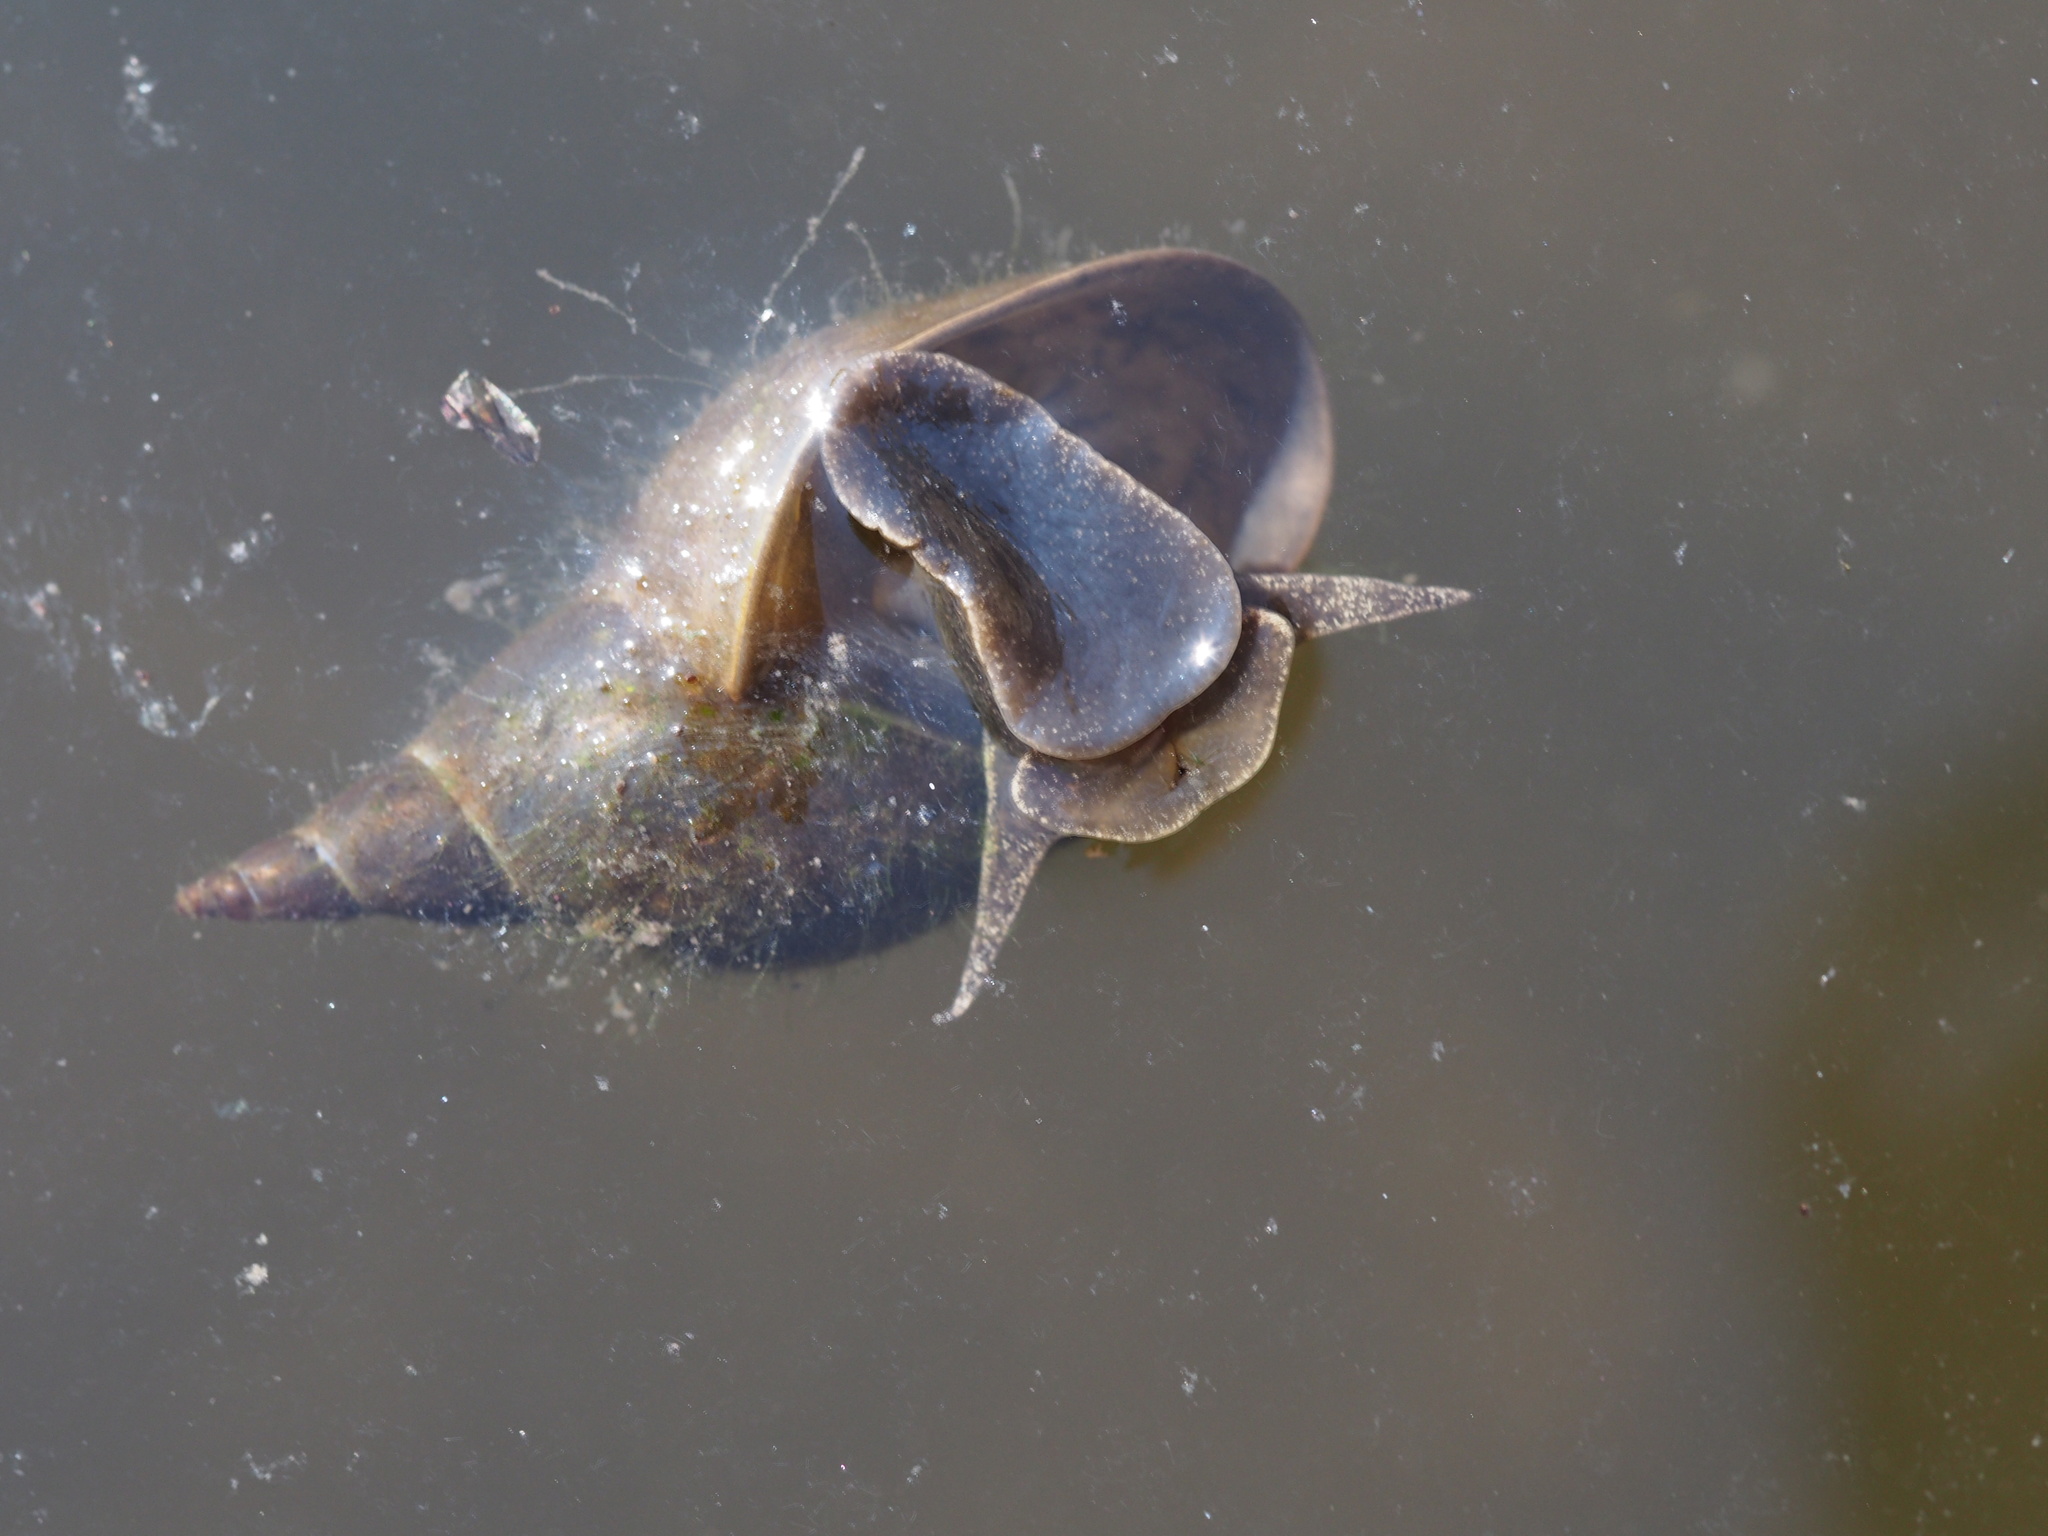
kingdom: Animalia
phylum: Mollusca
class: Gastropoda
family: Lymnaeidae
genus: Lymnaea
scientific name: Lymnaea stagnalis
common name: Great pond snail
